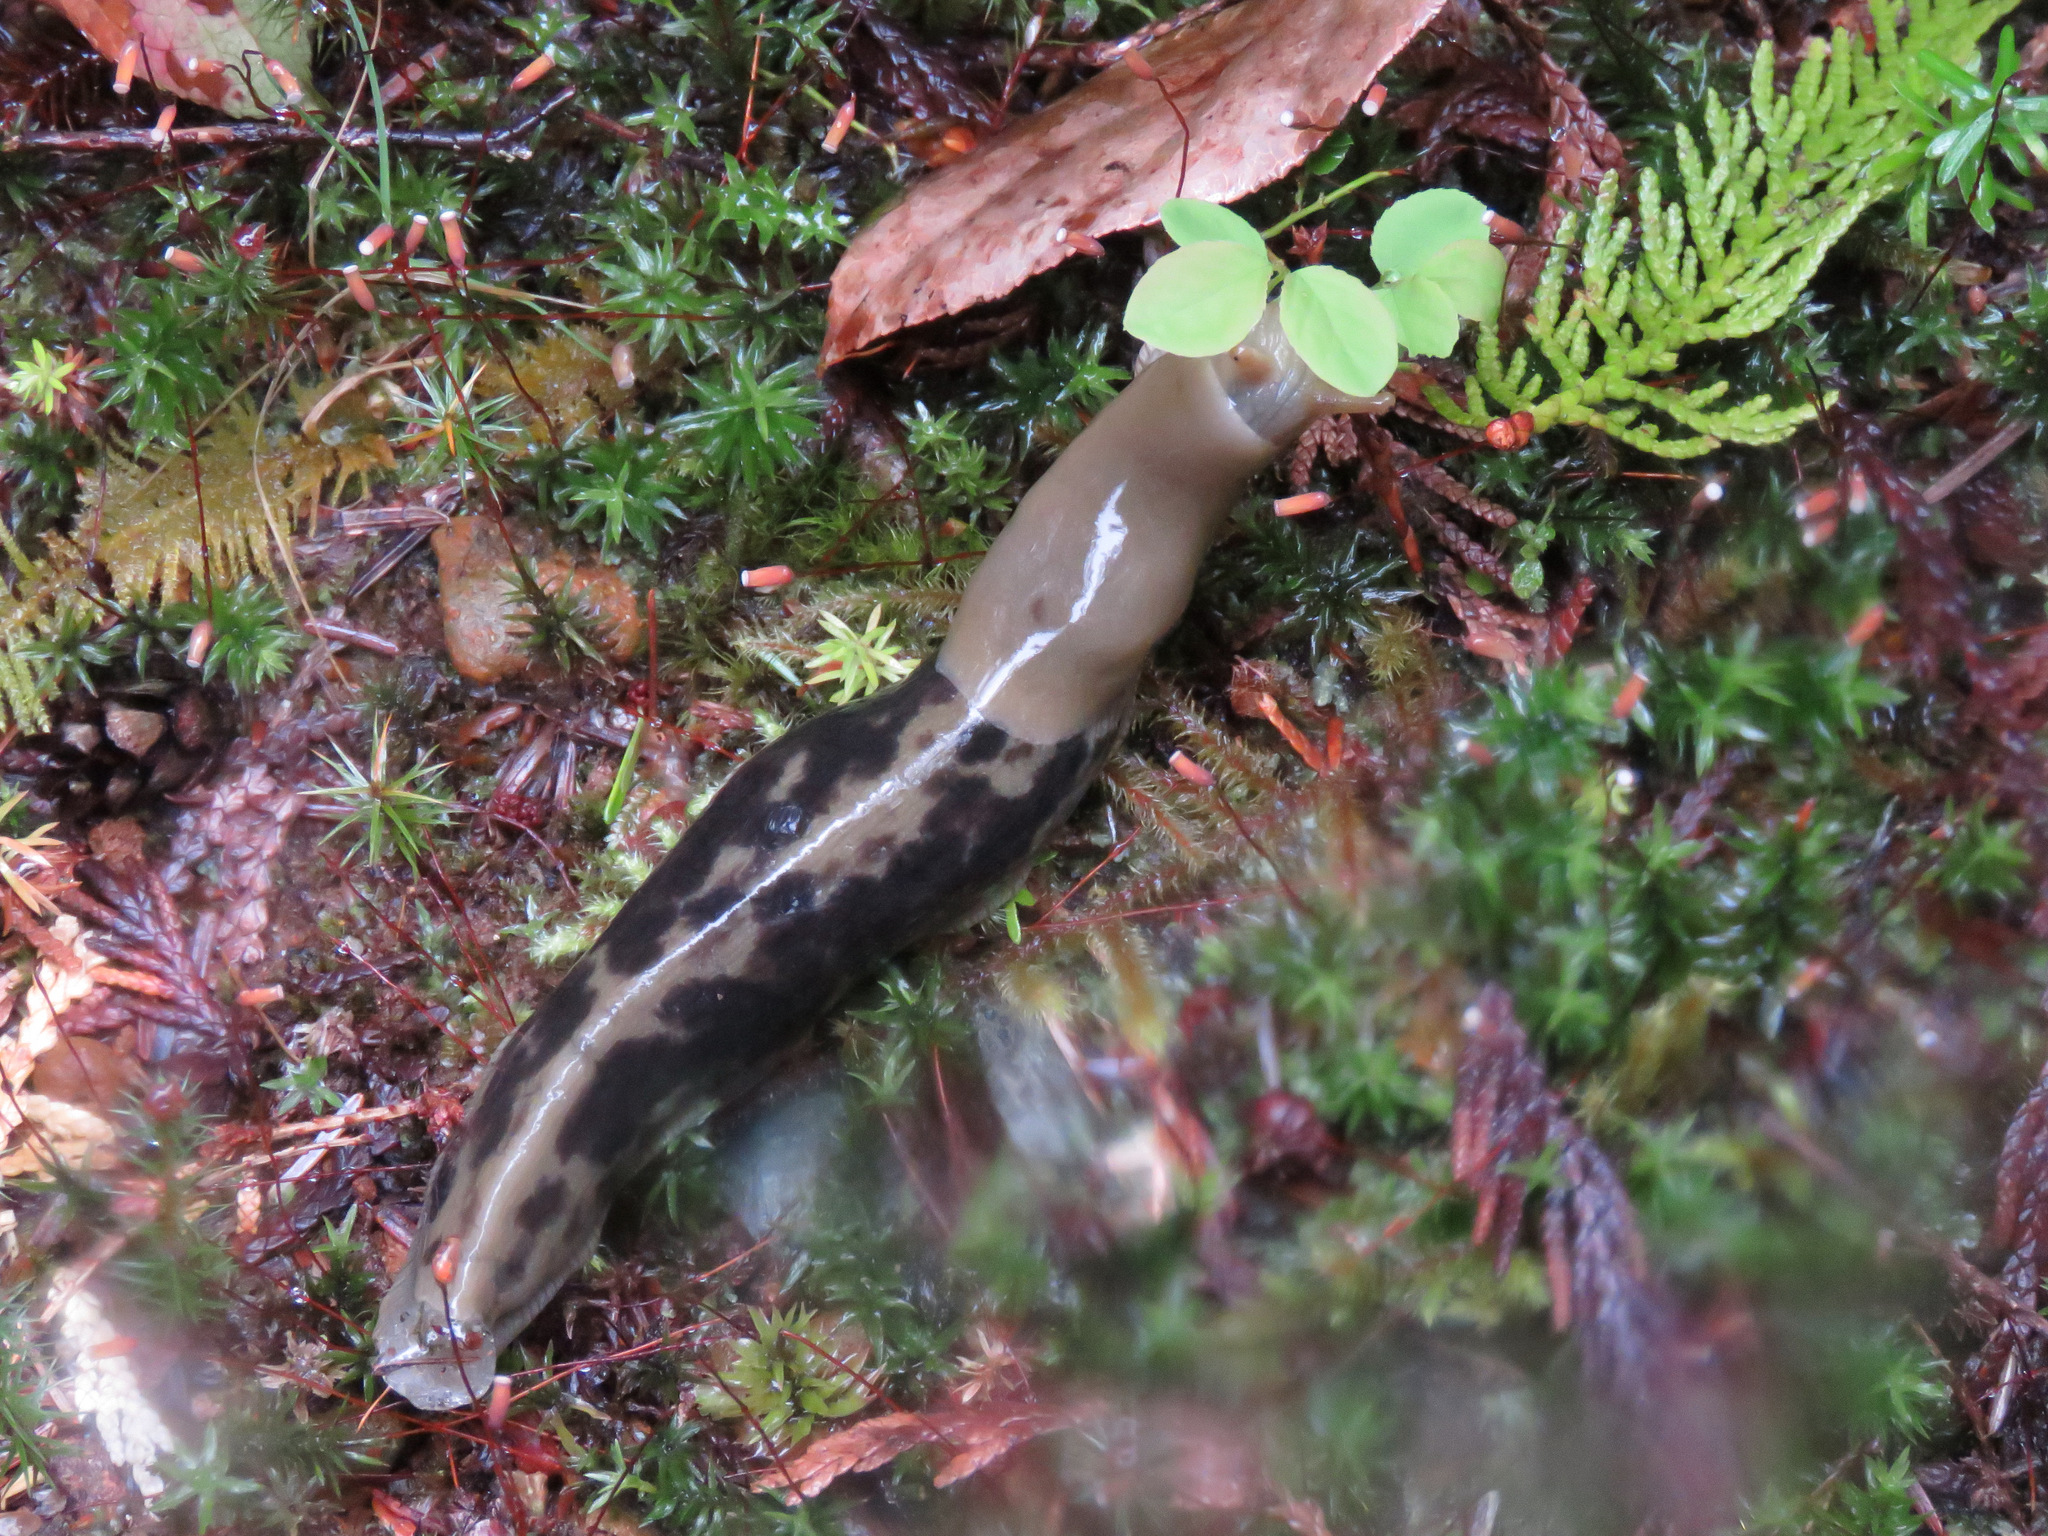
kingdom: Animalia
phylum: Mollusca
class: Gastropoda
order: Stylommatophora
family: Ariolimacidae
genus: Ariolimax
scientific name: Ariolimax columbianus
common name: Pacific banana slug
